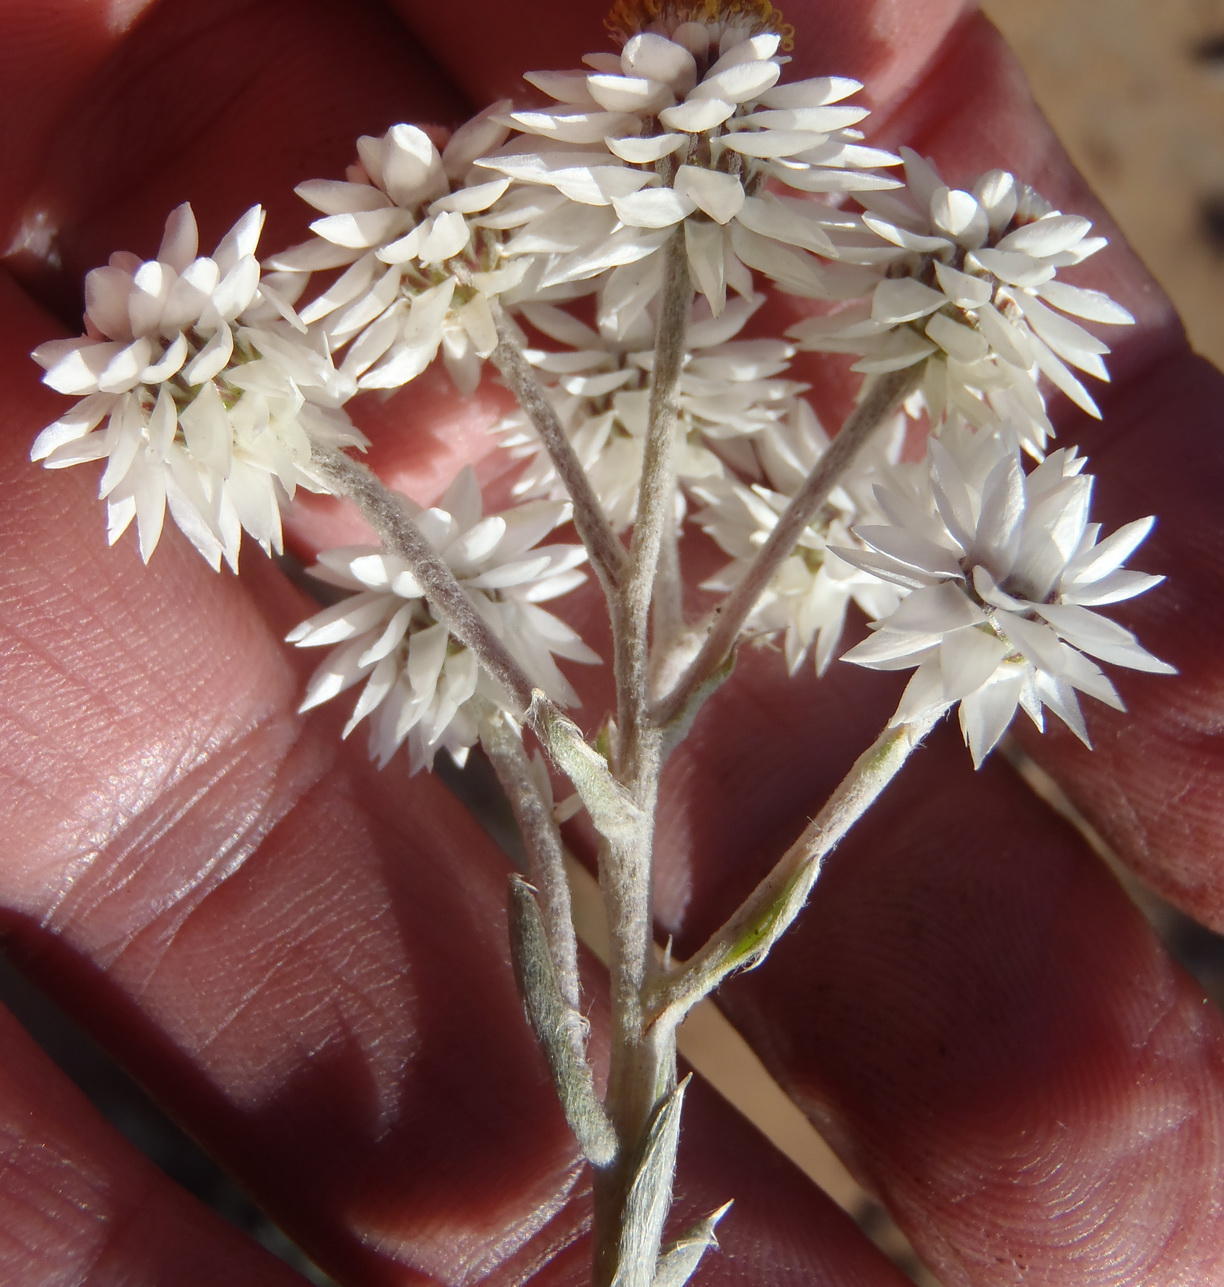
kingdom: Plantae
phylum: Tracheophyta
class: Magnoliopsida
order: Asterales
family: Asteraceae
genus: Achyranthemum
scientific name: Achyranthemum paniculatum
